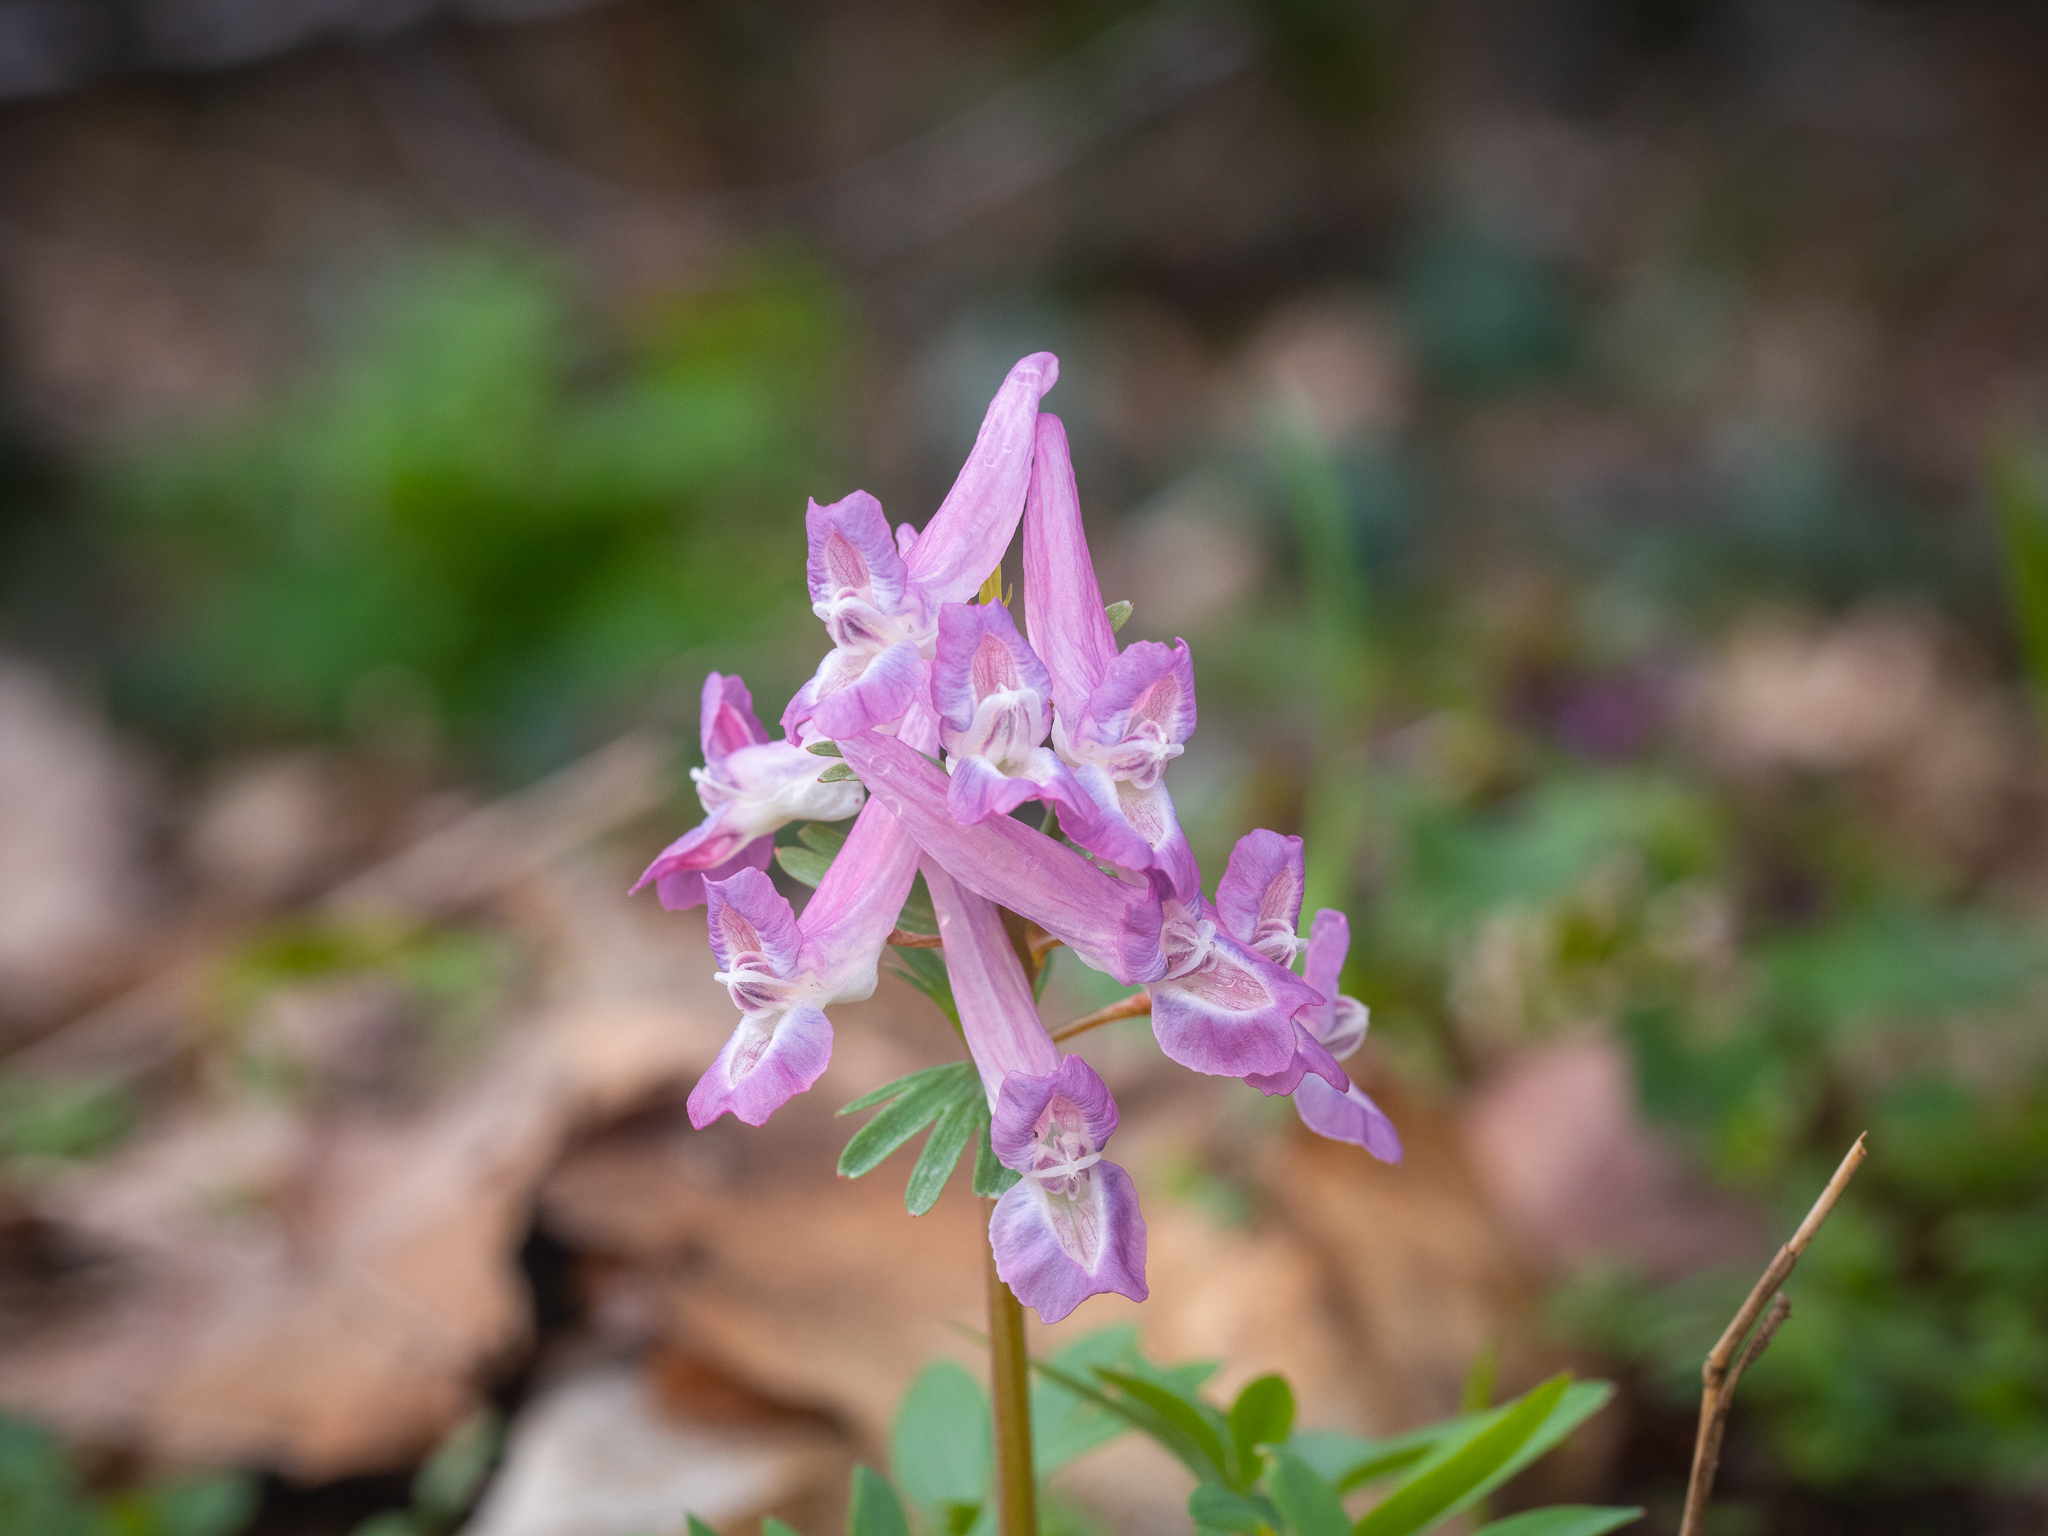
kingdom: Plantae
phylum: Tracheophyta
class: Magnoliopsida
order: Ranunculales
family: Papaveraceae
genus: Corydalis
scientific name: Corydalis solida
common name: Bird-in-a-bush
